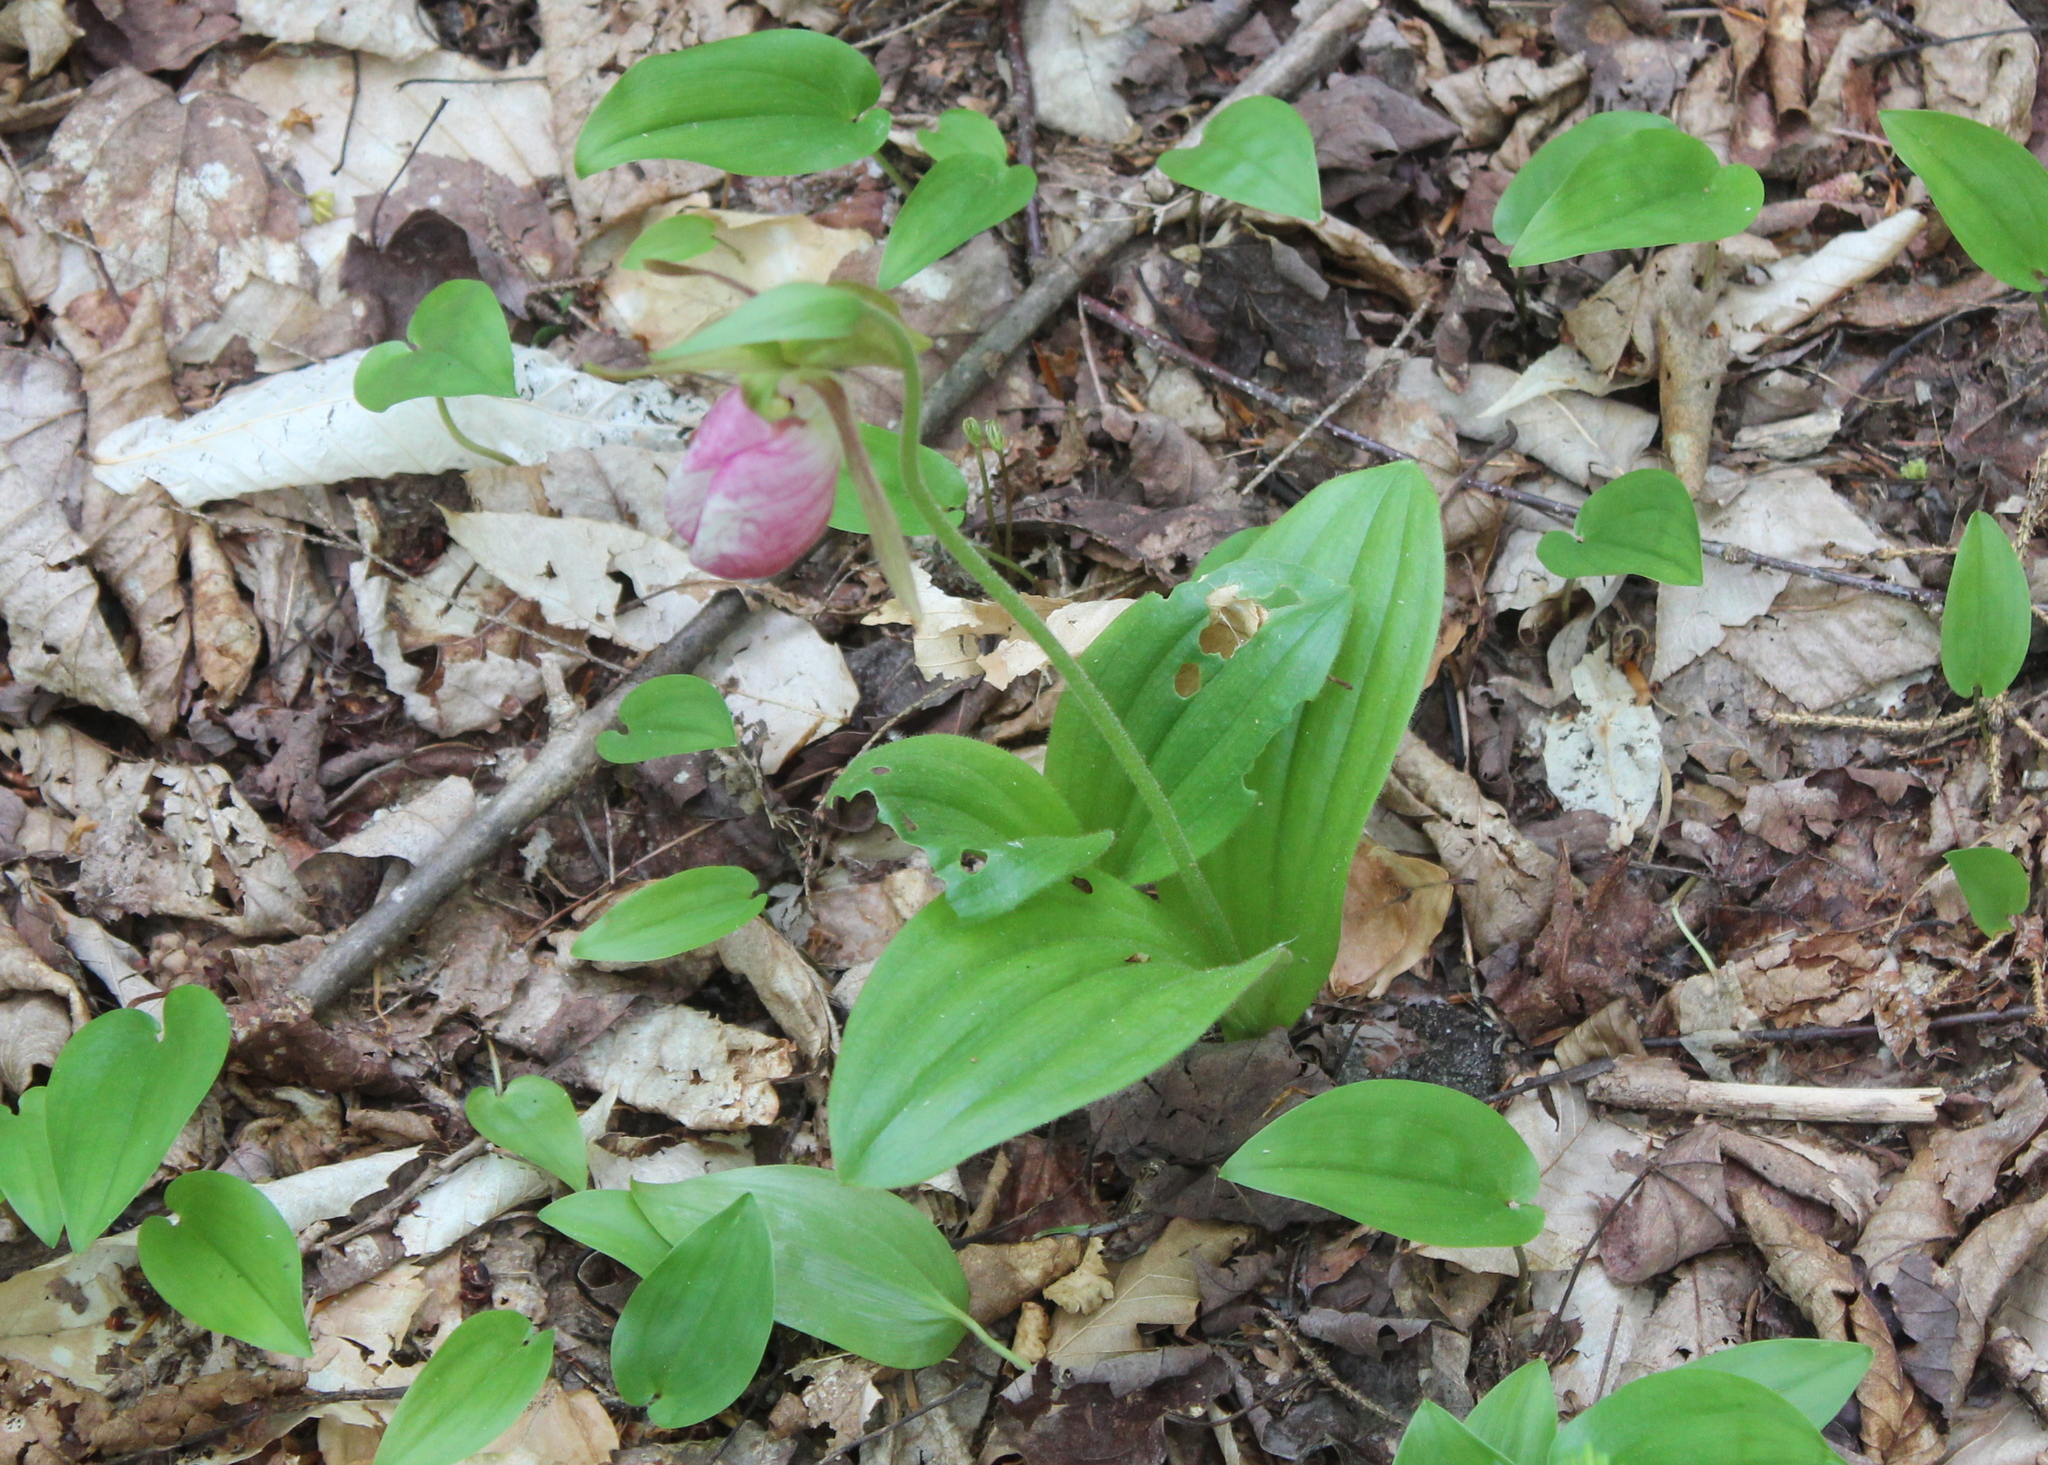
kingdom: Plantae
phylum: Tracheophyta
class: Liliopsida
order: Asparagales
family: Orchidaceae
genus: Cypripedium
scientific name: Cypripedium acaule
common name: Pink lady's-slipper
